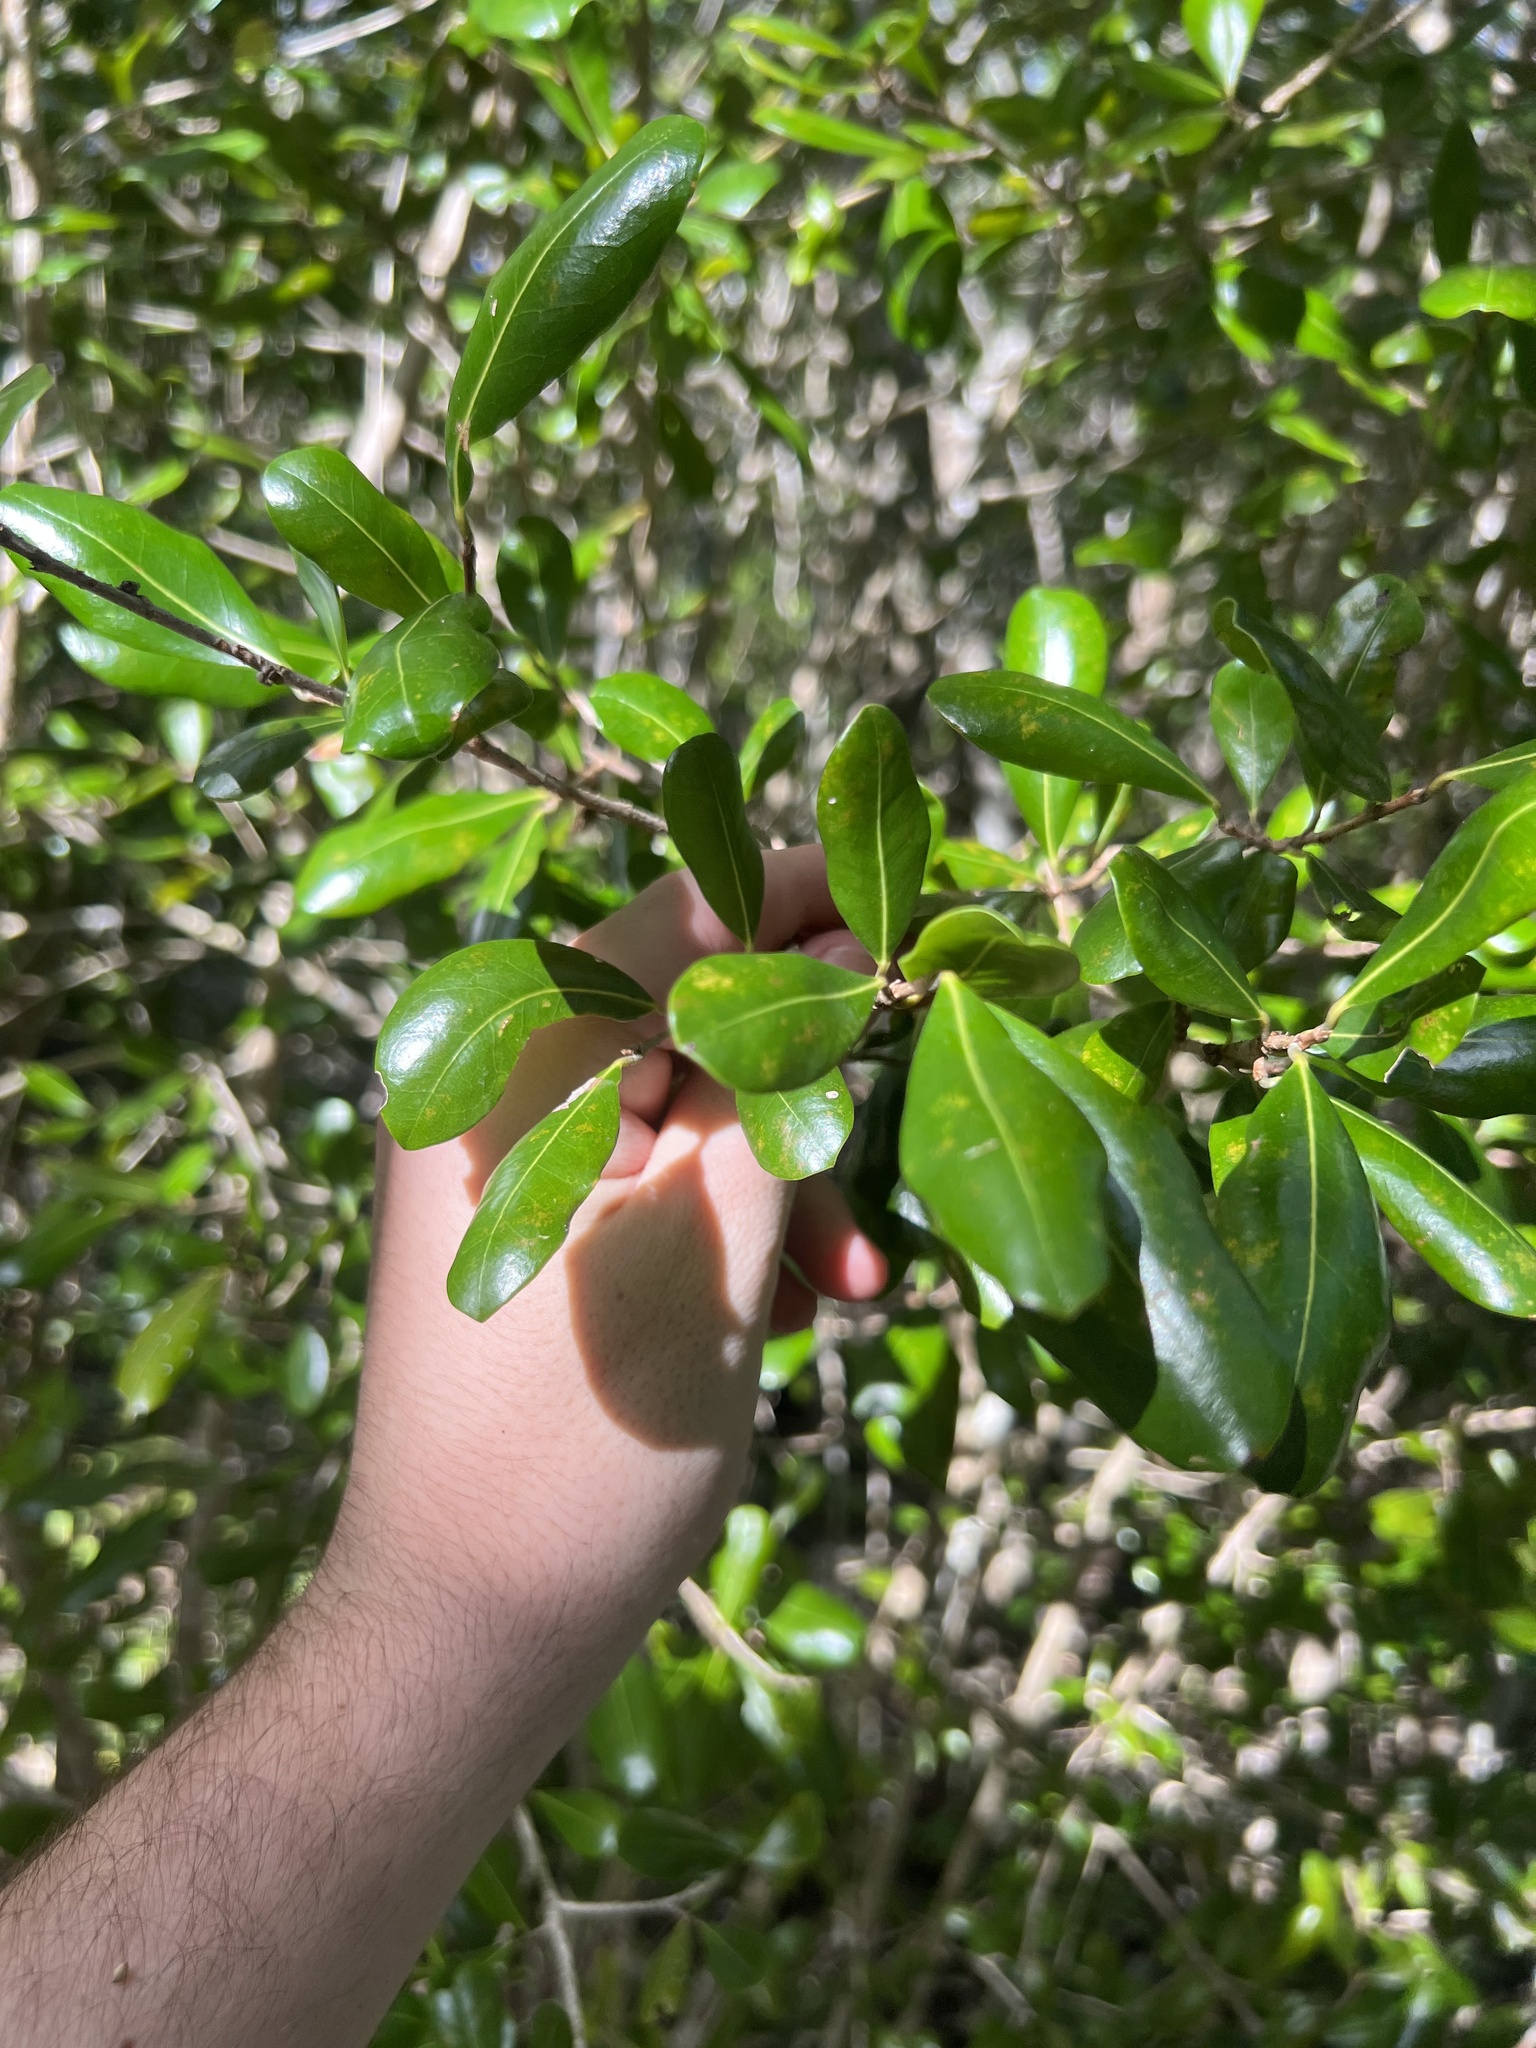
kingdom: Plantae
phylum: Tracheophyta
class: Magnoliopsida
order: Myrtales
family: Myrtaceae
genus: Myrcianthes
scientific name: Myrcianthes fragrans
